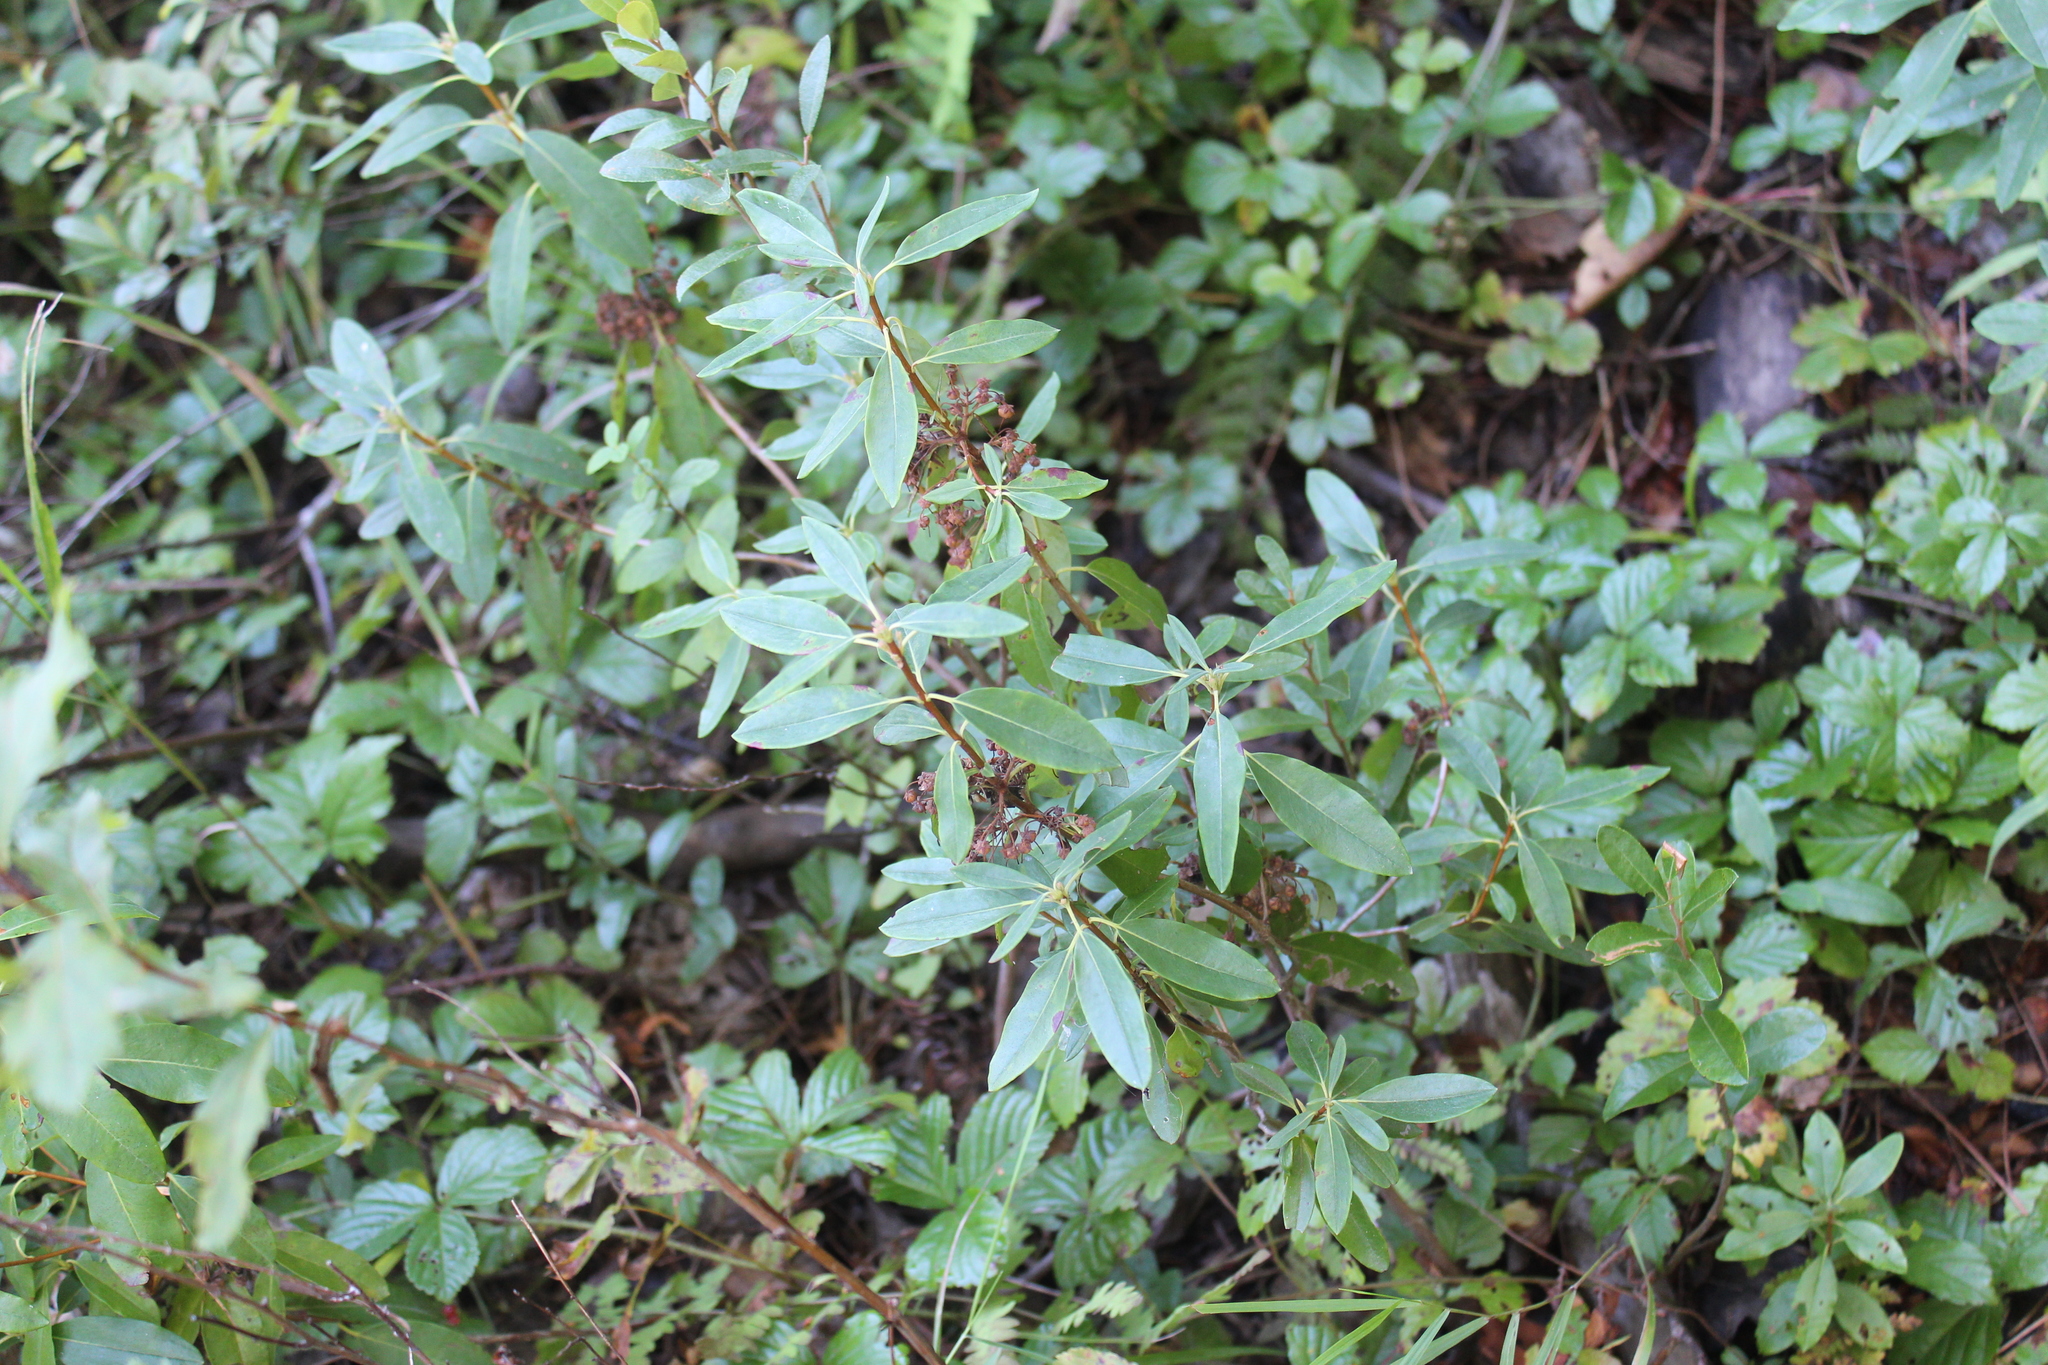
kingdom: Plantae
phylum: Tracheophyta
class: Magnoliopsida
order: Ericales
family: Ericaceae
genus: Kalmia
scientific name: Kalmia angustifolia
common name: Sheep-laurel
